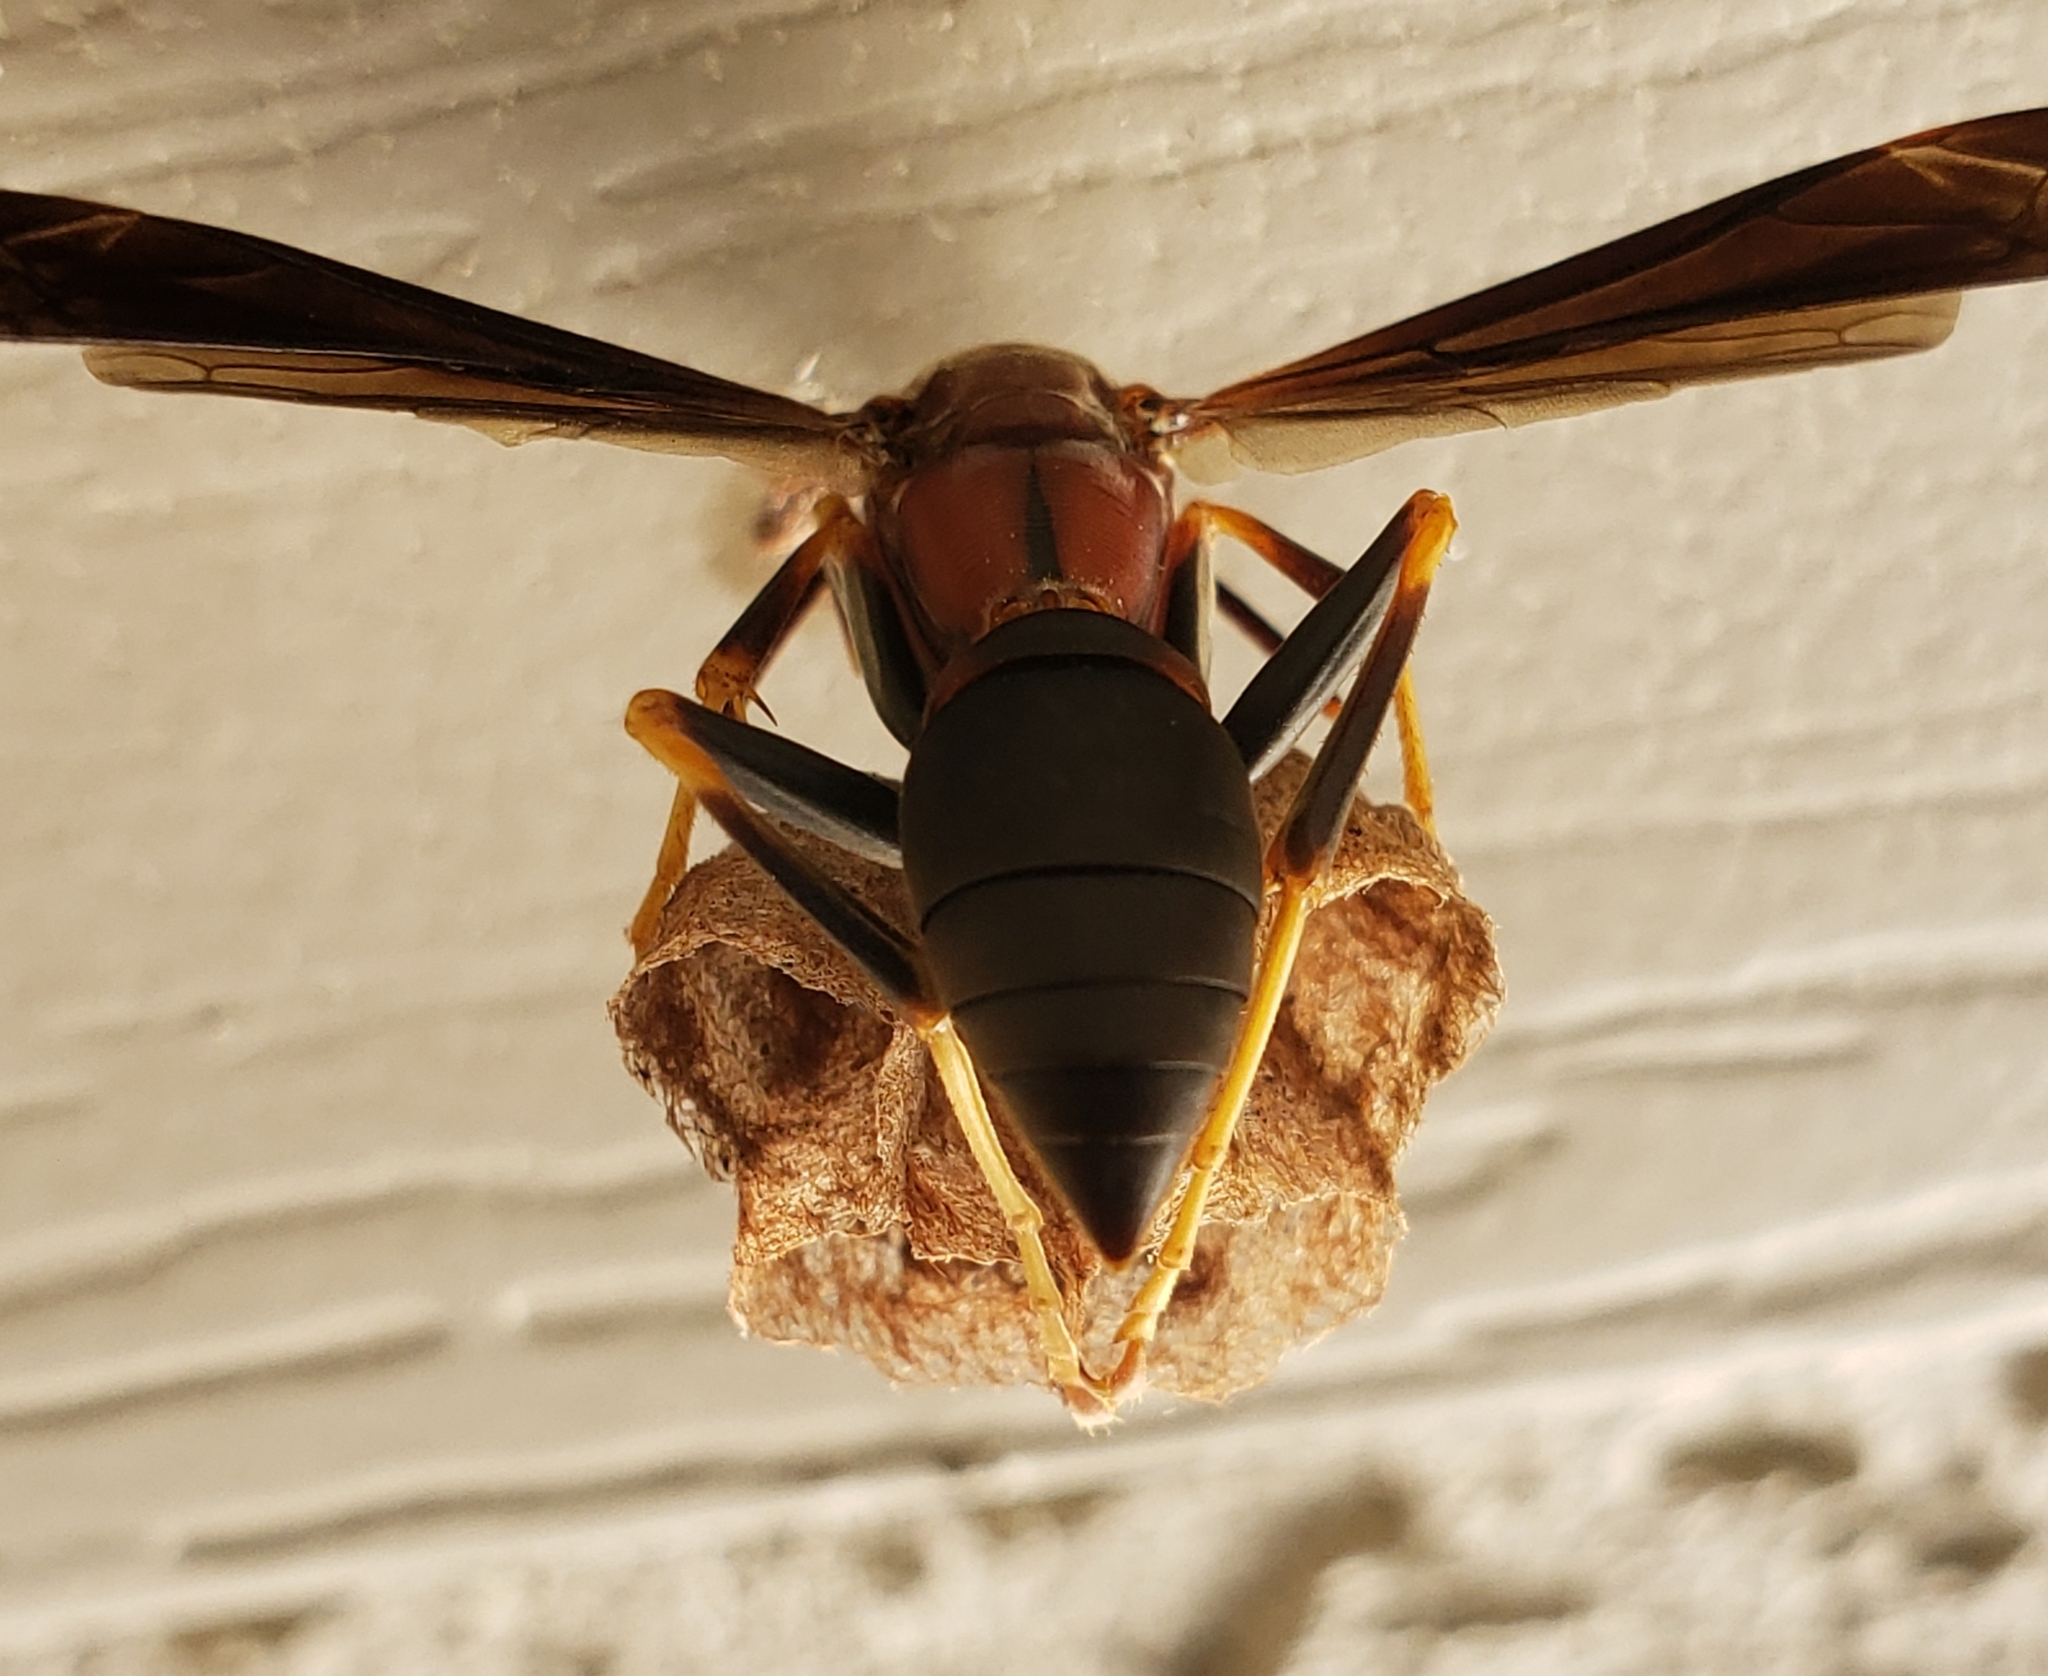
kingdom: Animalia
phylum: Arthropoda
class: Insecta
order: Hymenoptera
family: Eumenidae
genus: Polistes
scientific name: Polistes metricus
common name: Metric paper wasp
